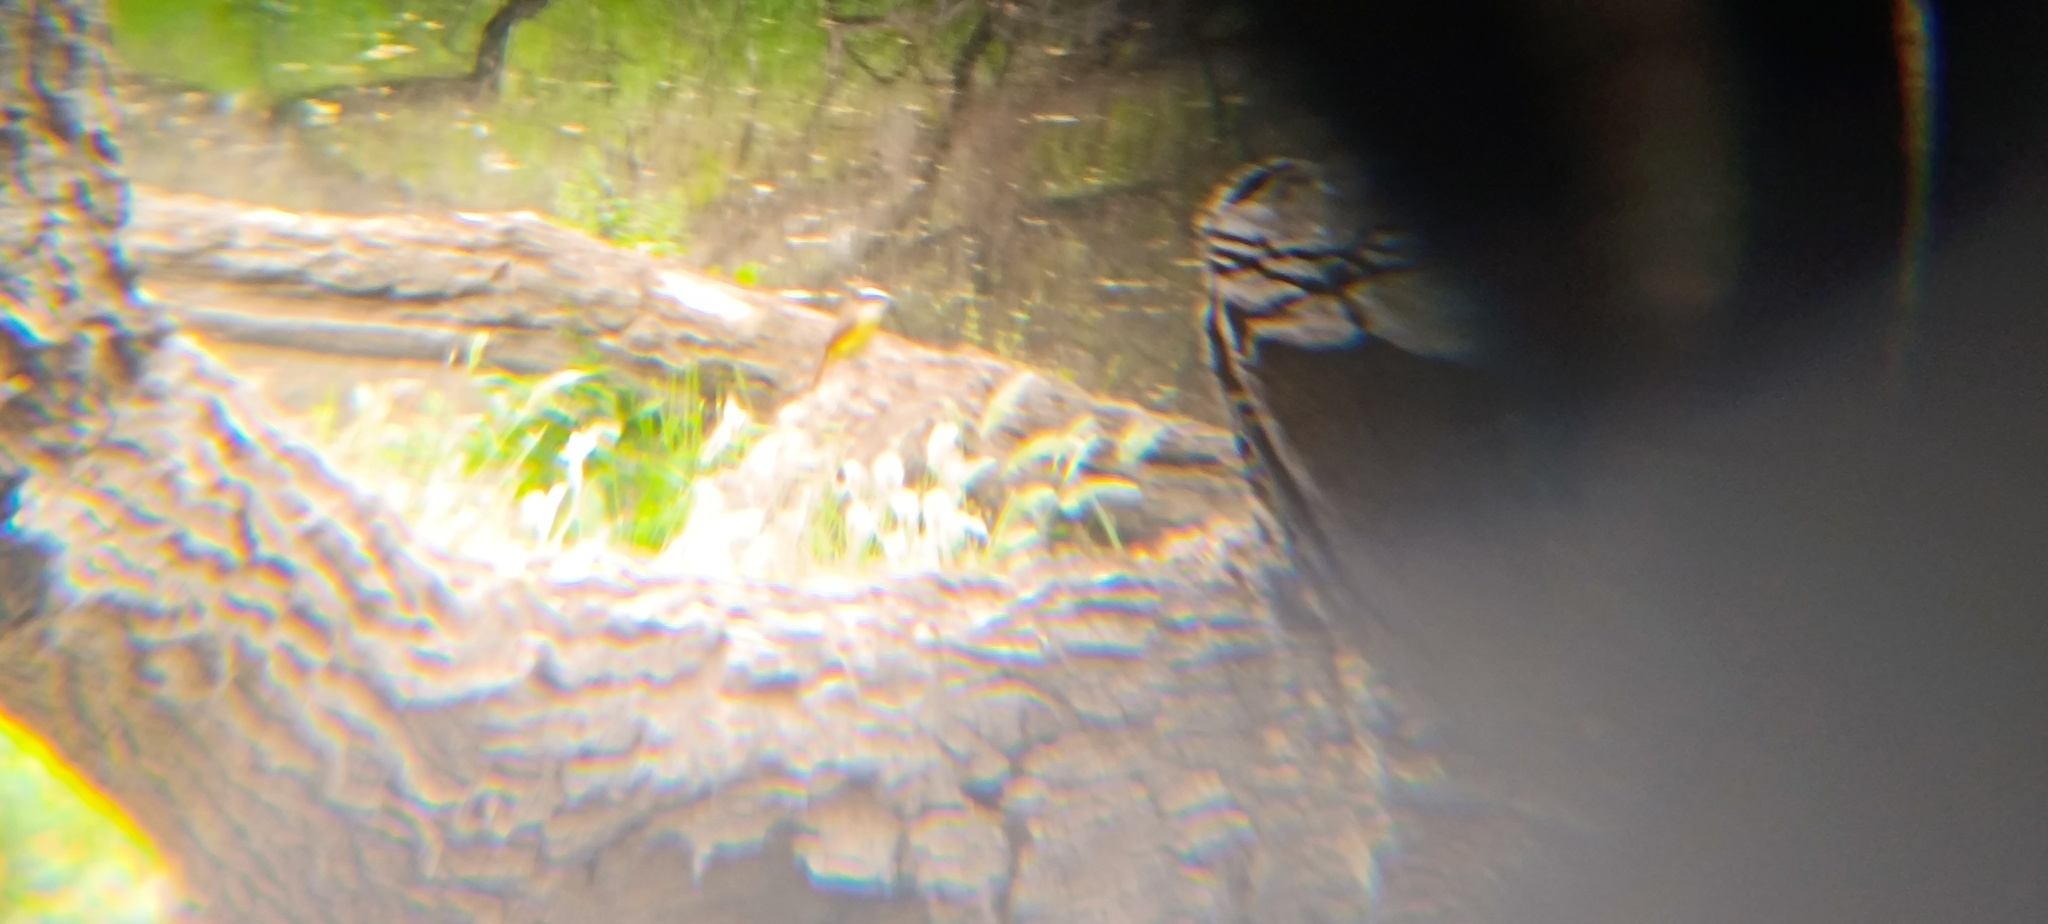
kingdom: Animalia
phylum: Chordata
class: Aves
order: Passeriformes
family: Tyrannidae
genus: Pitangus
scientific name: Pitangus sulphuratus
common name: Great kiskadee
